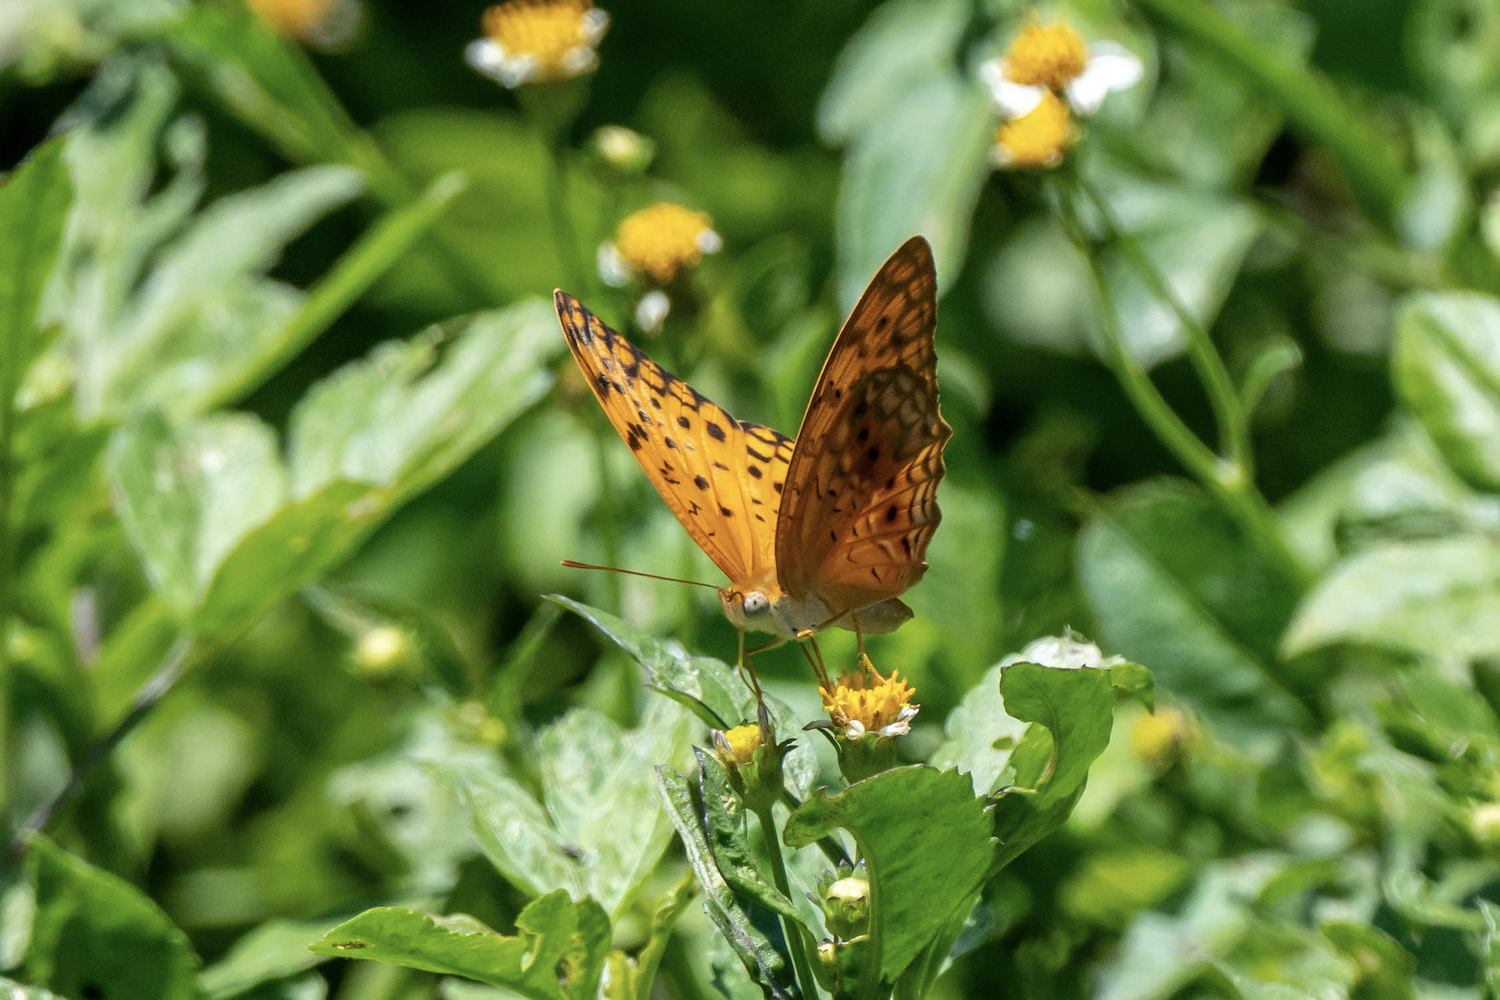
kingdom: Animalia
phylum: Arthropoda
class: Insecta
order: Lepidoptera
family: Nymphalidae
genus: Phalanta
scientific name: Phalanta phalantha
